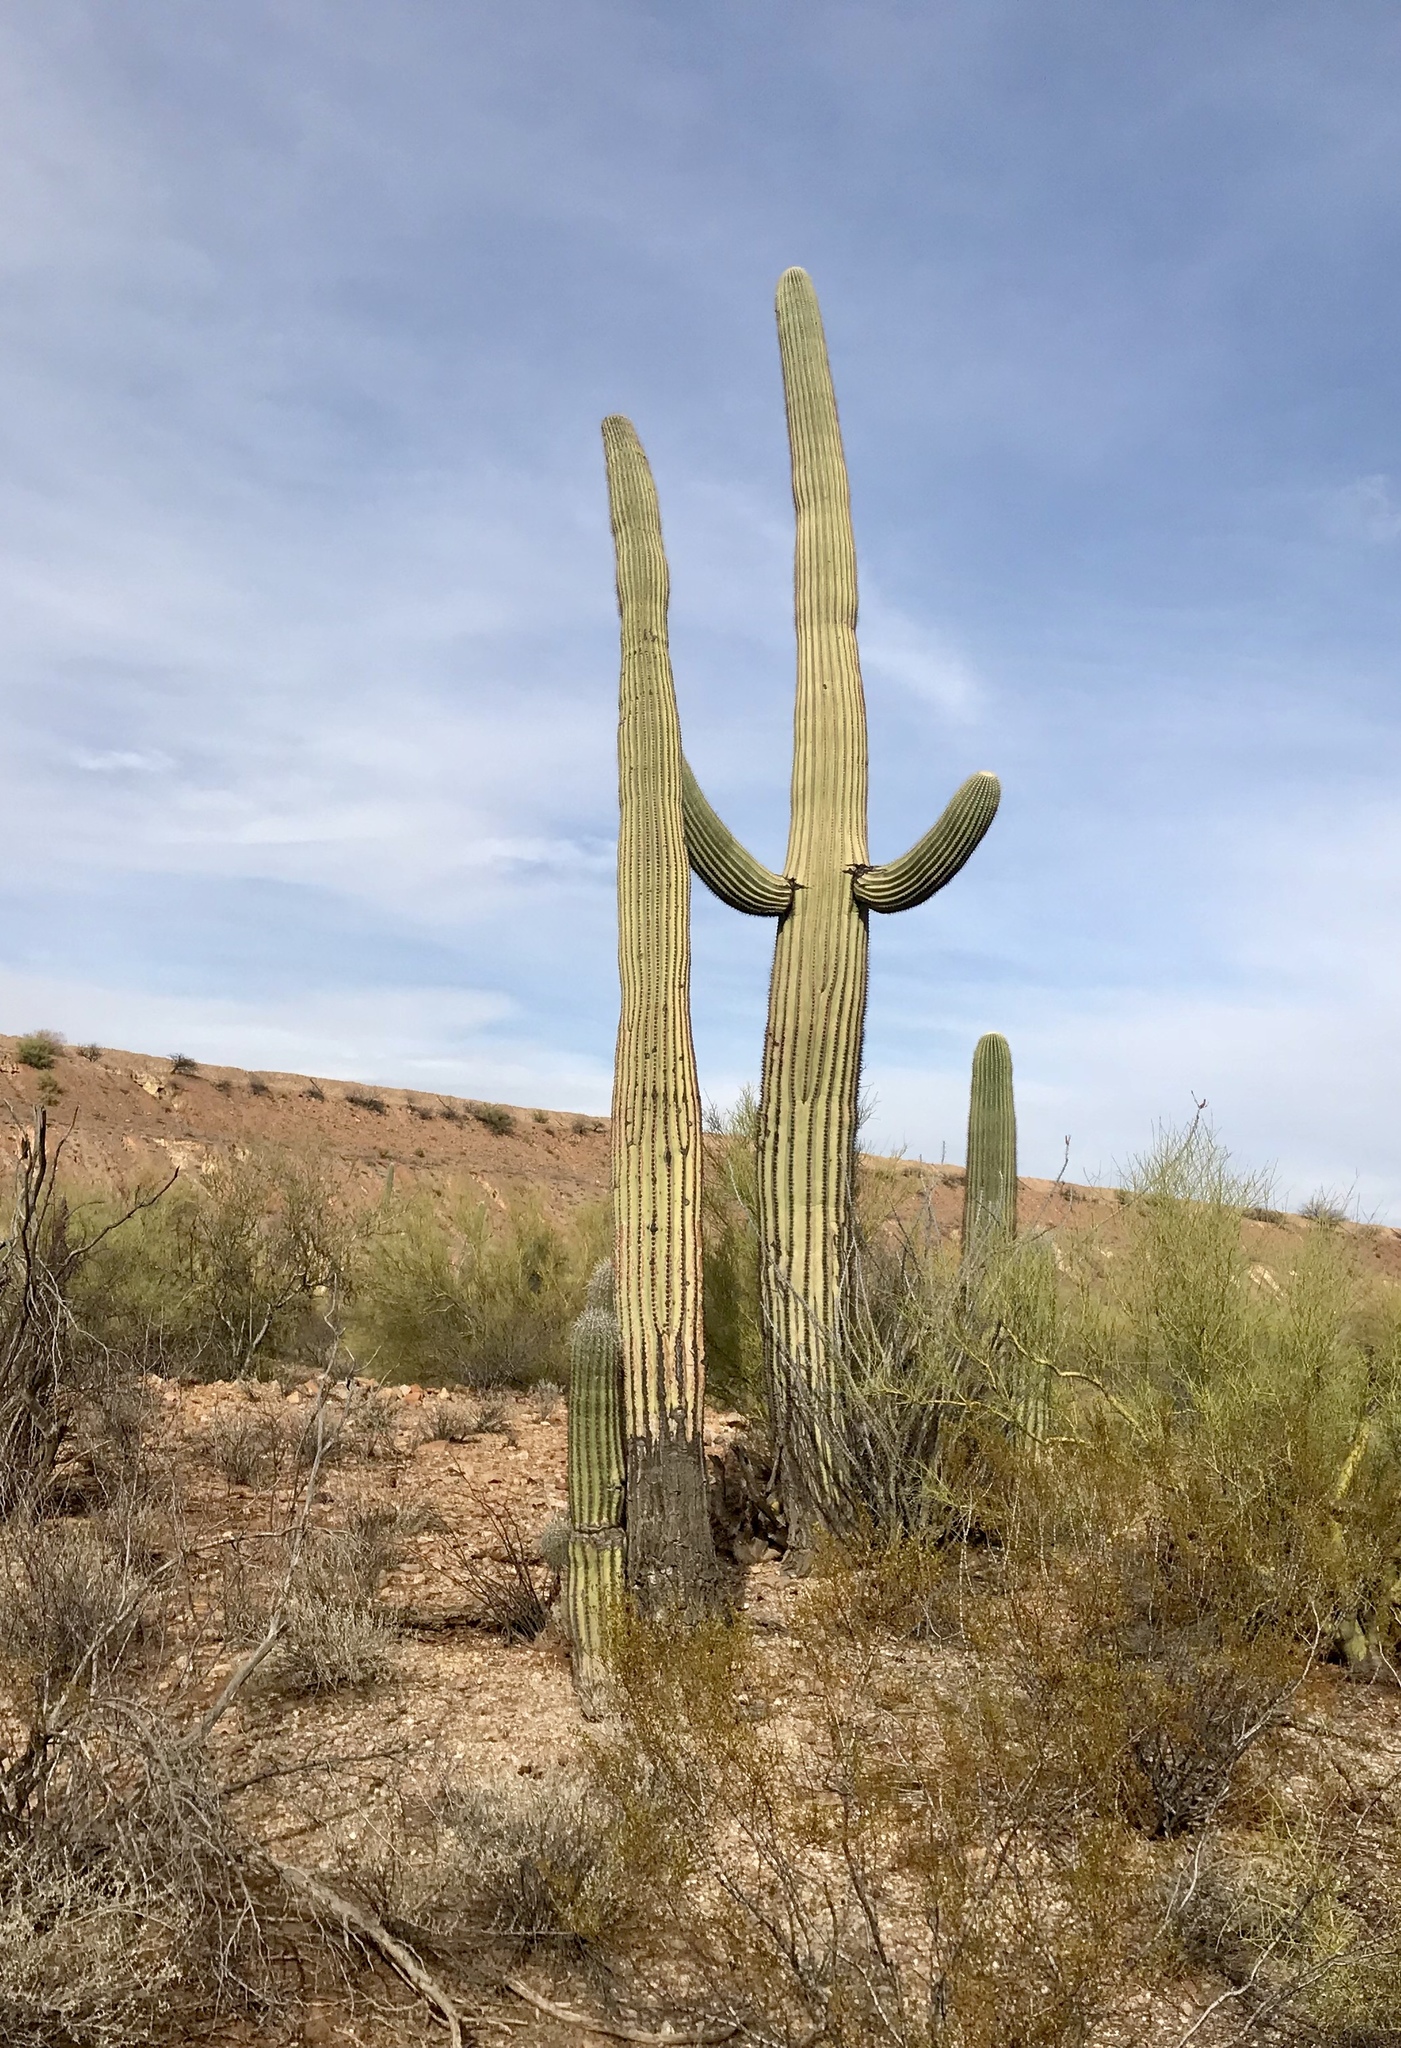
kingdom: Plantae
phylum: Tracheophyta
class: Magnoliopsida
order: Caryophyllales
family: Cactaceae
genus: Carnegiea
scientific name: Carnegiea gigantea
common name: Saguaro
